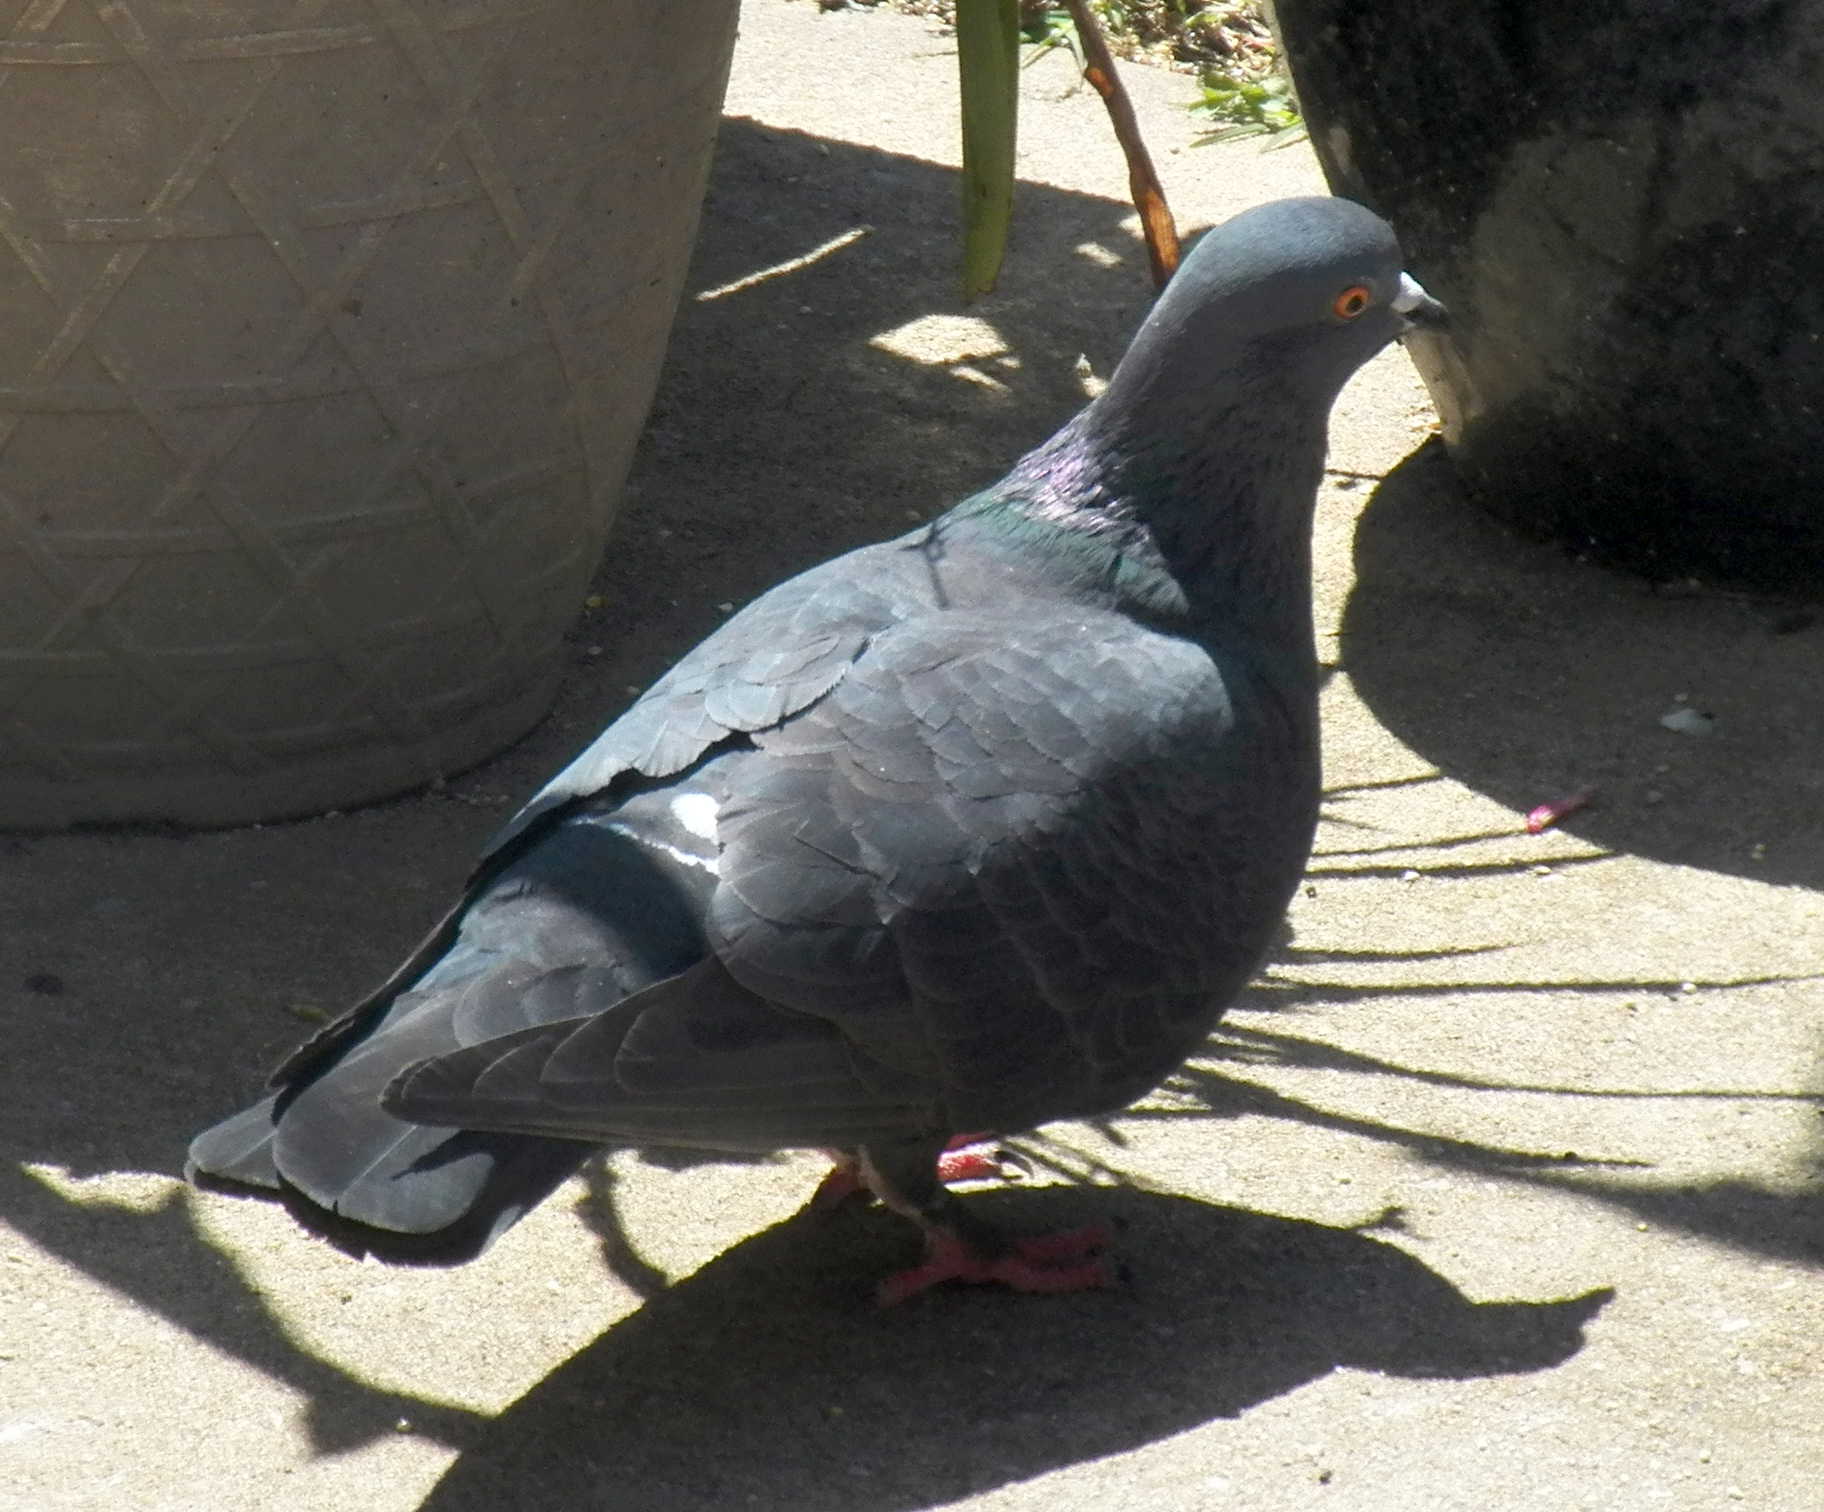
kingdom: Animalia
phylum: Chordata
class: Aves
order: Columbiformes
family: Columbidae
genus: Columba
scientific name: Columba livia
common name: Rock pigeon
